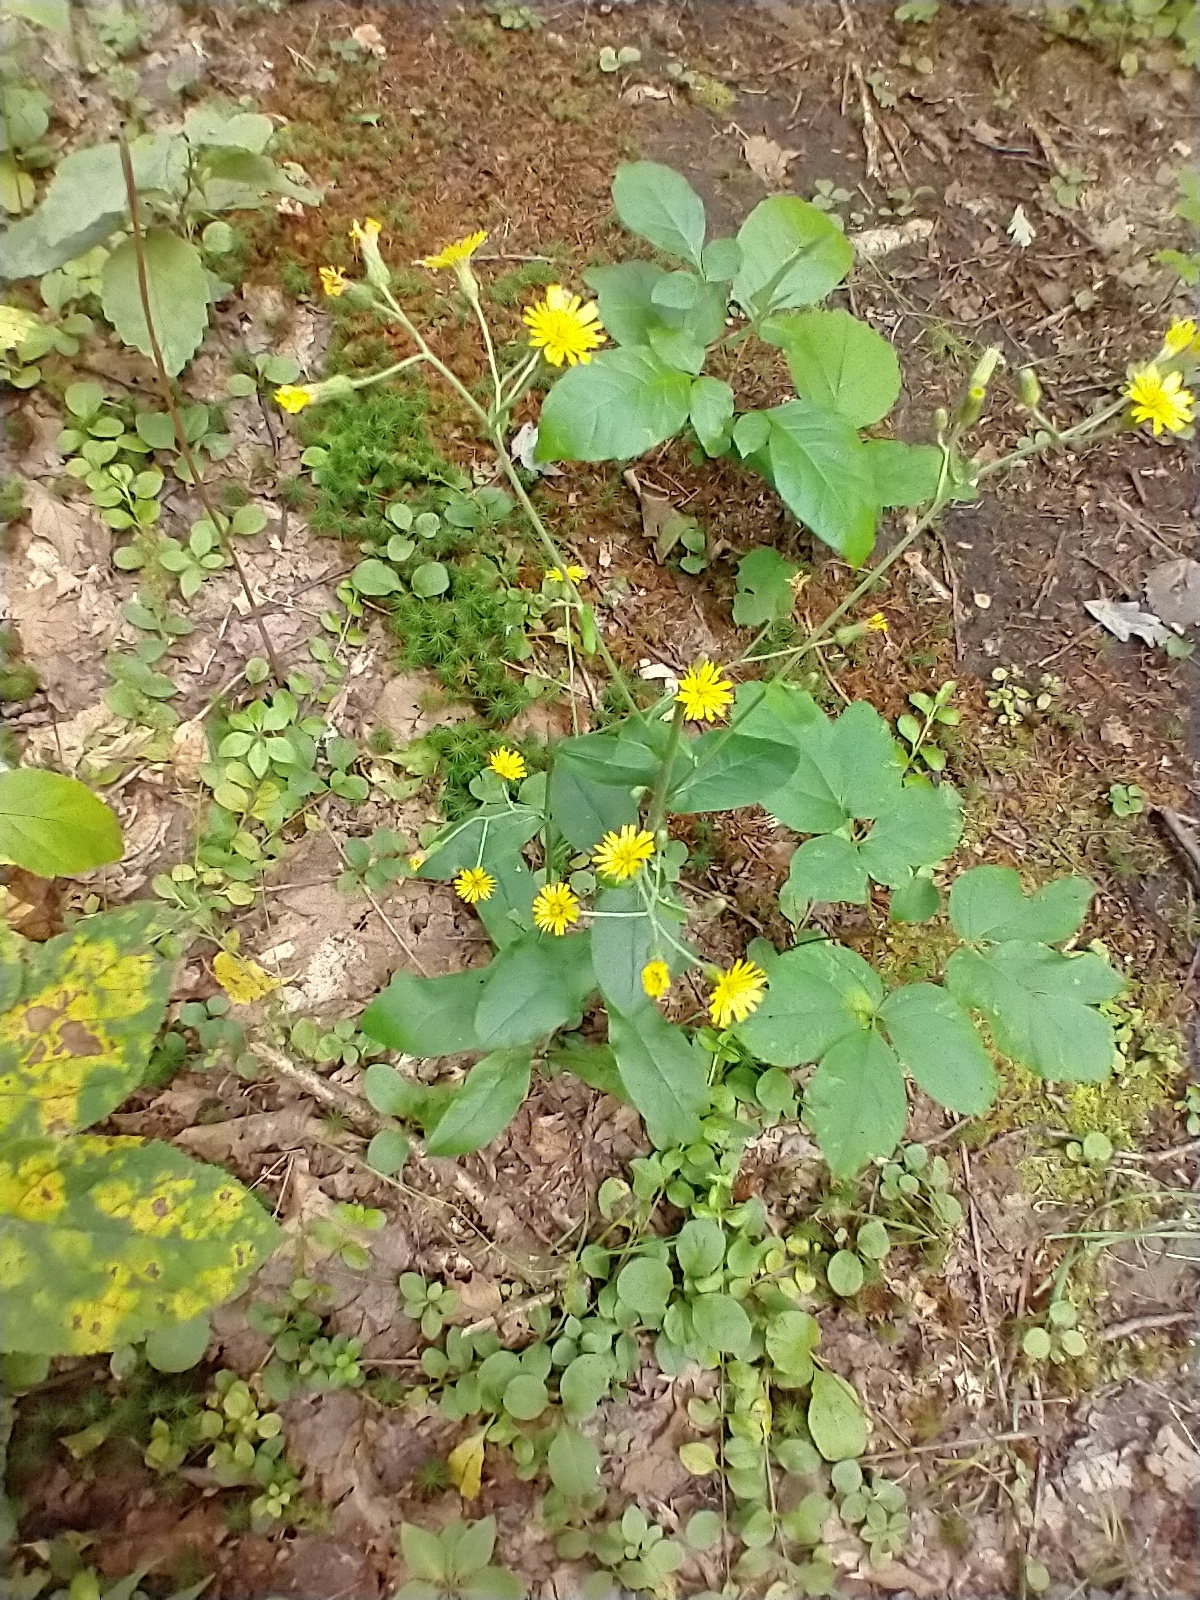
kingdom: Plantae
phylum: Tracheophyta
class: Magnoliopsida
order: Asterales
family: Asteraceae
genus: Hieracium
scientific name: Hieracium scabrum
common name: Rough hawkweed
